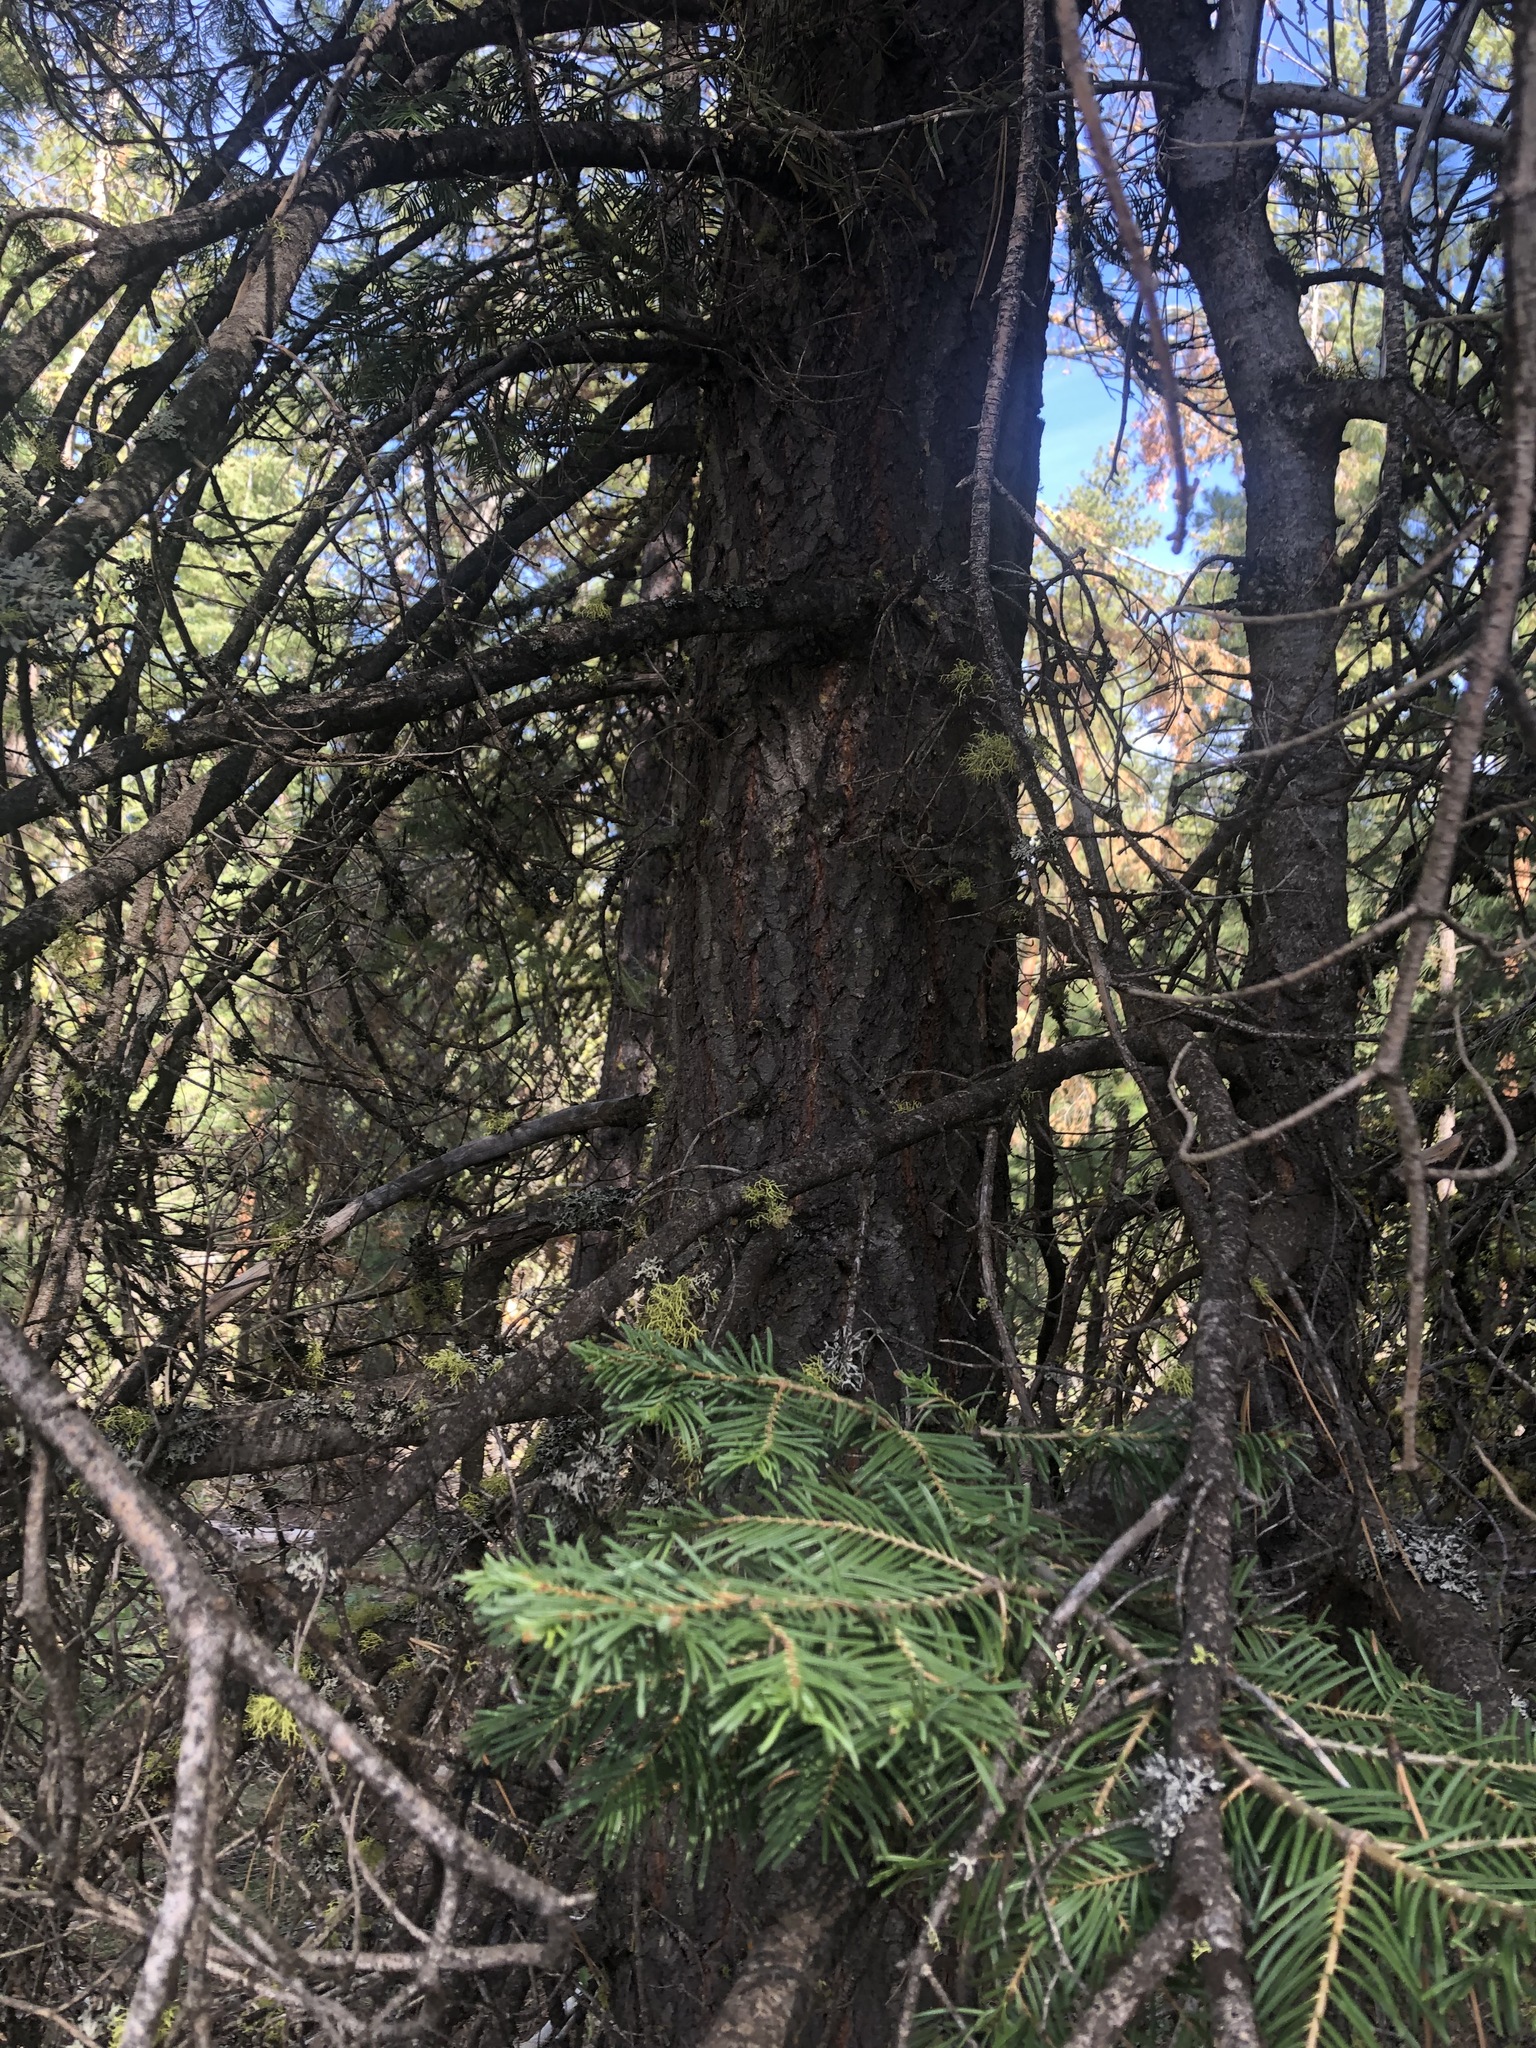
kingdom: Plantae
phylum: Tracheophyta
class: Pinopsida
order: Pinales
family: Pinaceae
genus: Abies
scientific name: Abies concolor
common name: Colorado fir
